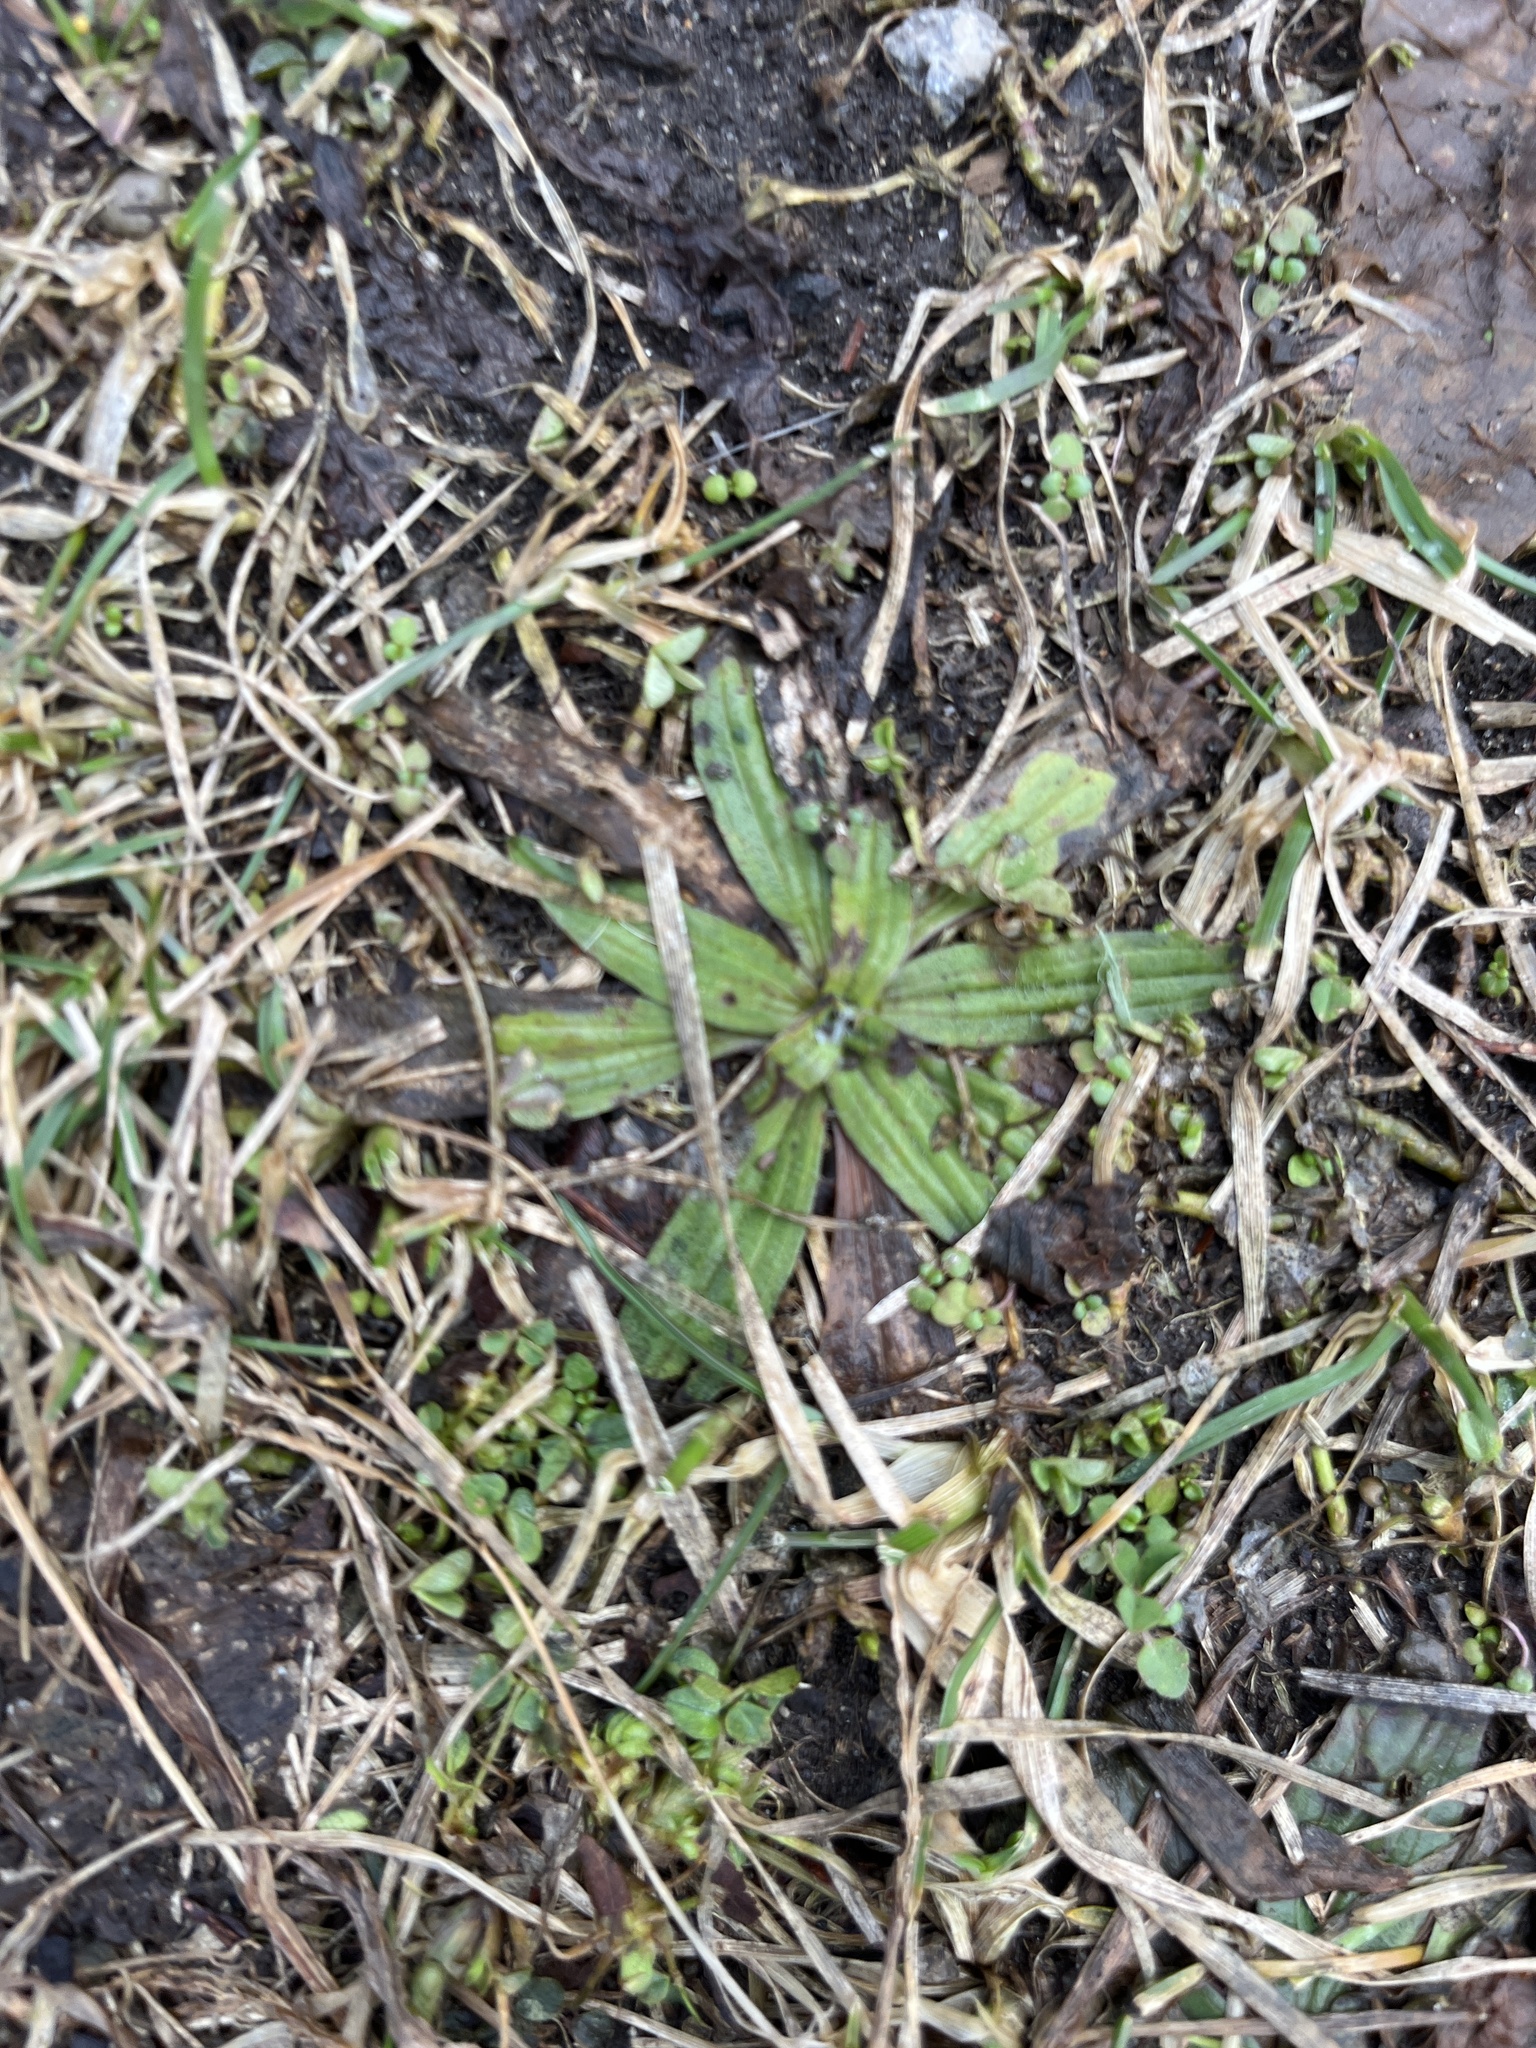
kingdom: Plantae
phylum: Tracheophyta
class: Magnoliopsida
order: Lamiales
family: Plantaginaceae
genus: Plantago
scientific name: Plantago lanceolata
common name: Ribwort plantain
